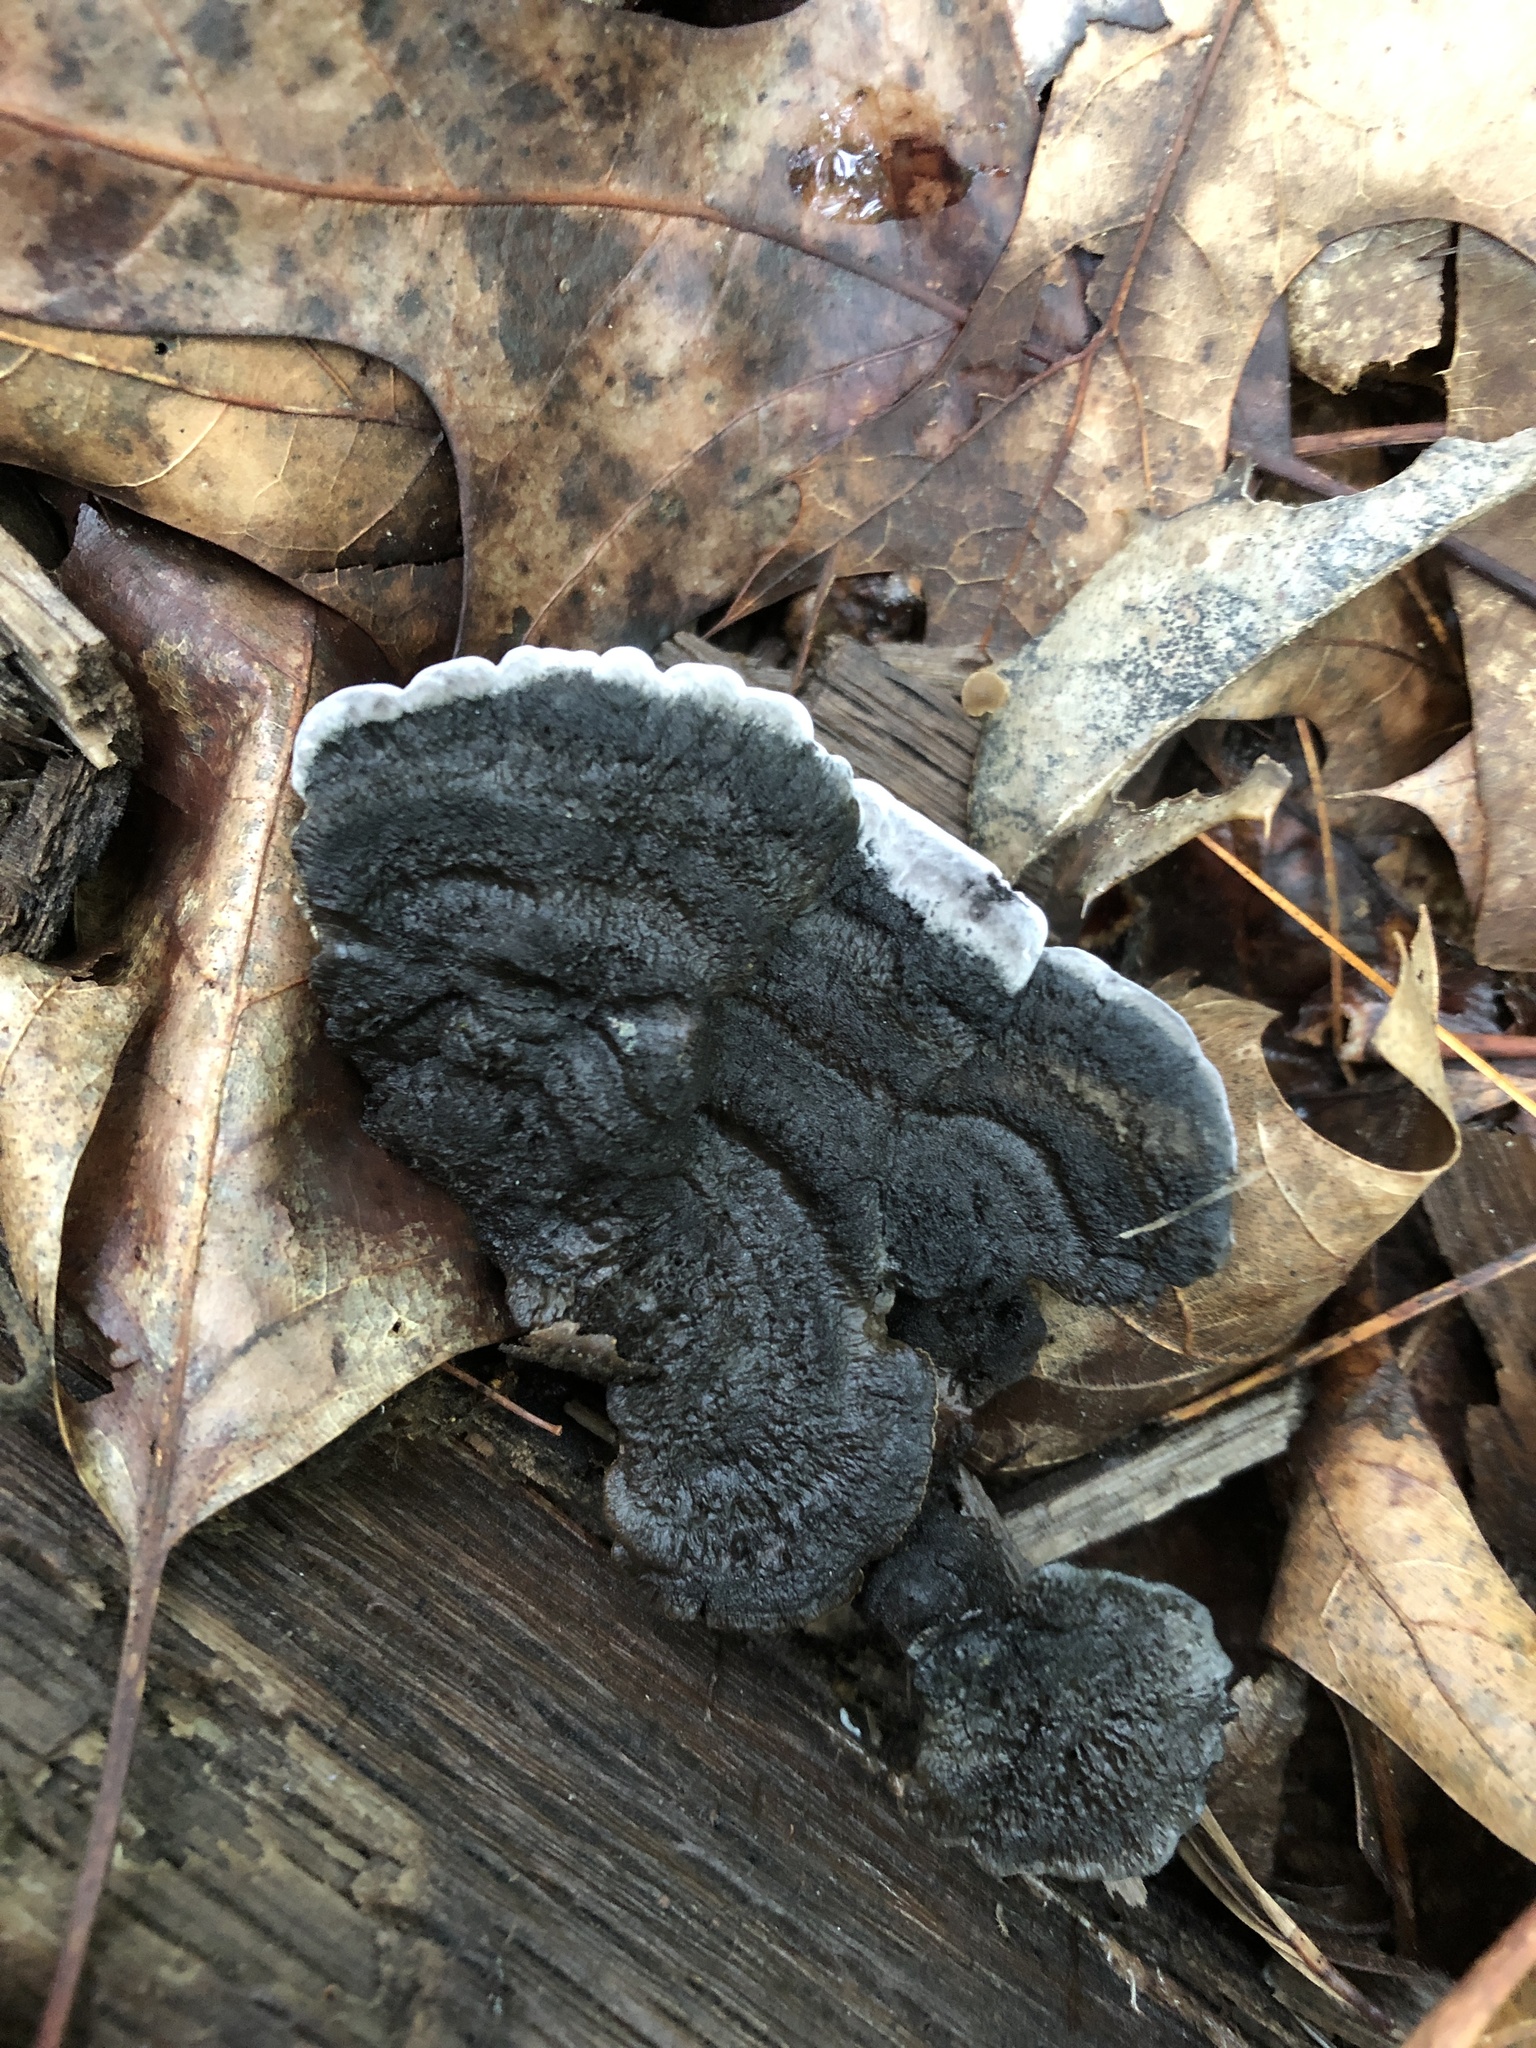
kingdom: Fungi
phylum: Basidiomycota
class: Agaricomycetes
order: Thelephorales
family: Thelephoraceae
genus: Phellodon
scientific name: Phellodon niger
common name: Black tooth
